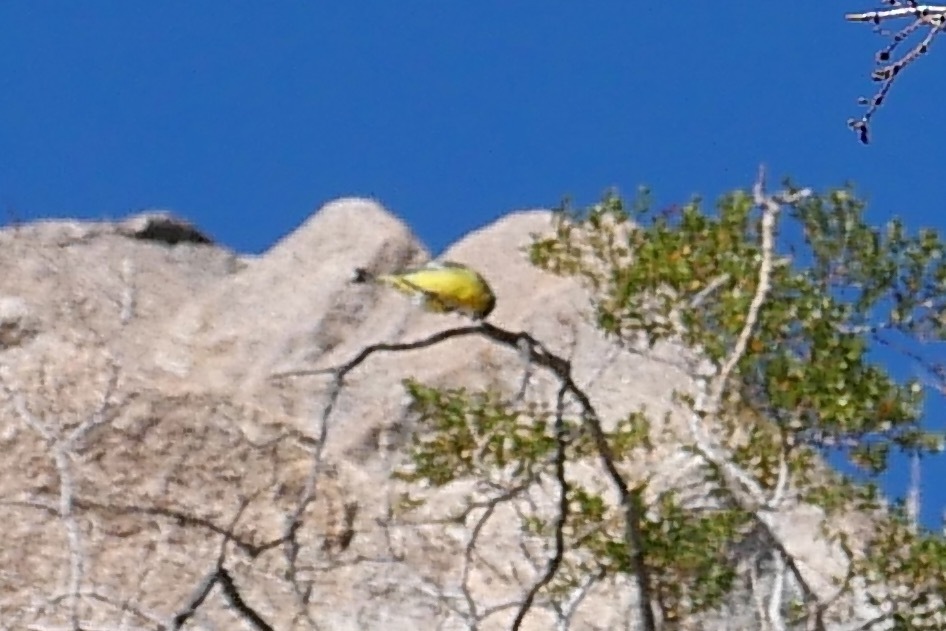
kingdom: Animalia
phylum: Chordata
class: Aves
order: Passeriformes
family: Fringillidae
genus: Spinus
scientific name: Spinus psaltria
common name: Lesser goldfinch
